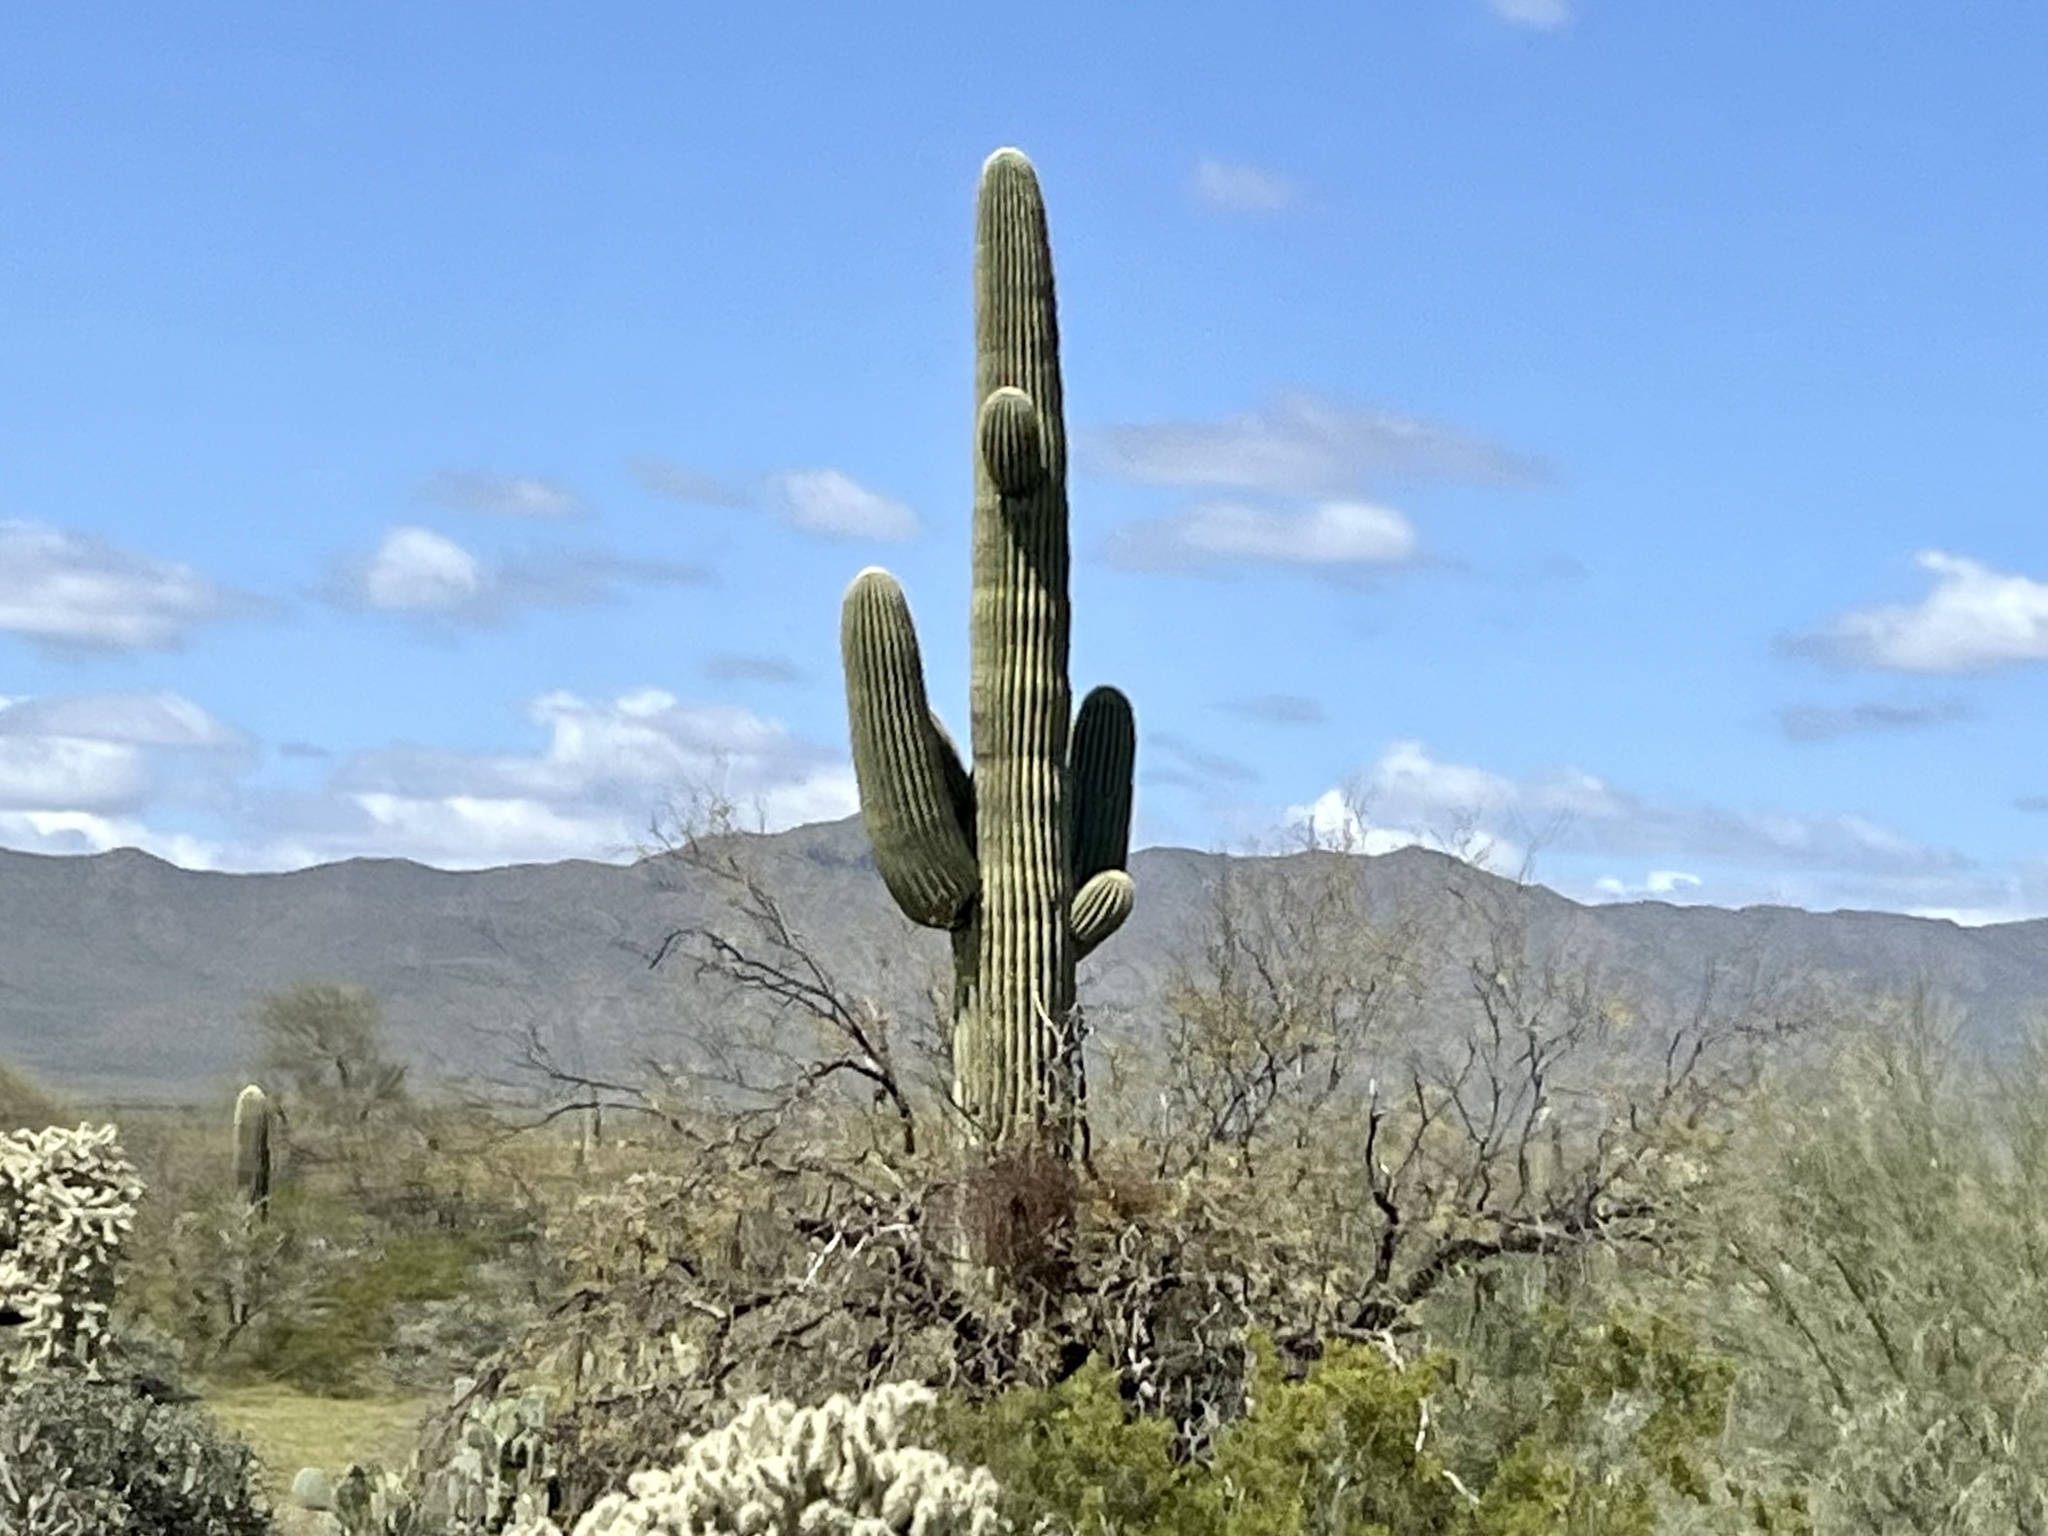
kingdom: Plantae
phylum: Tracheophyta
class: Magnoliopsida
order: Caryophyllales
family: Cactaceae
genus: Carnegiea
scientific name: Carnegiea gigantea
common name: Saguaro
